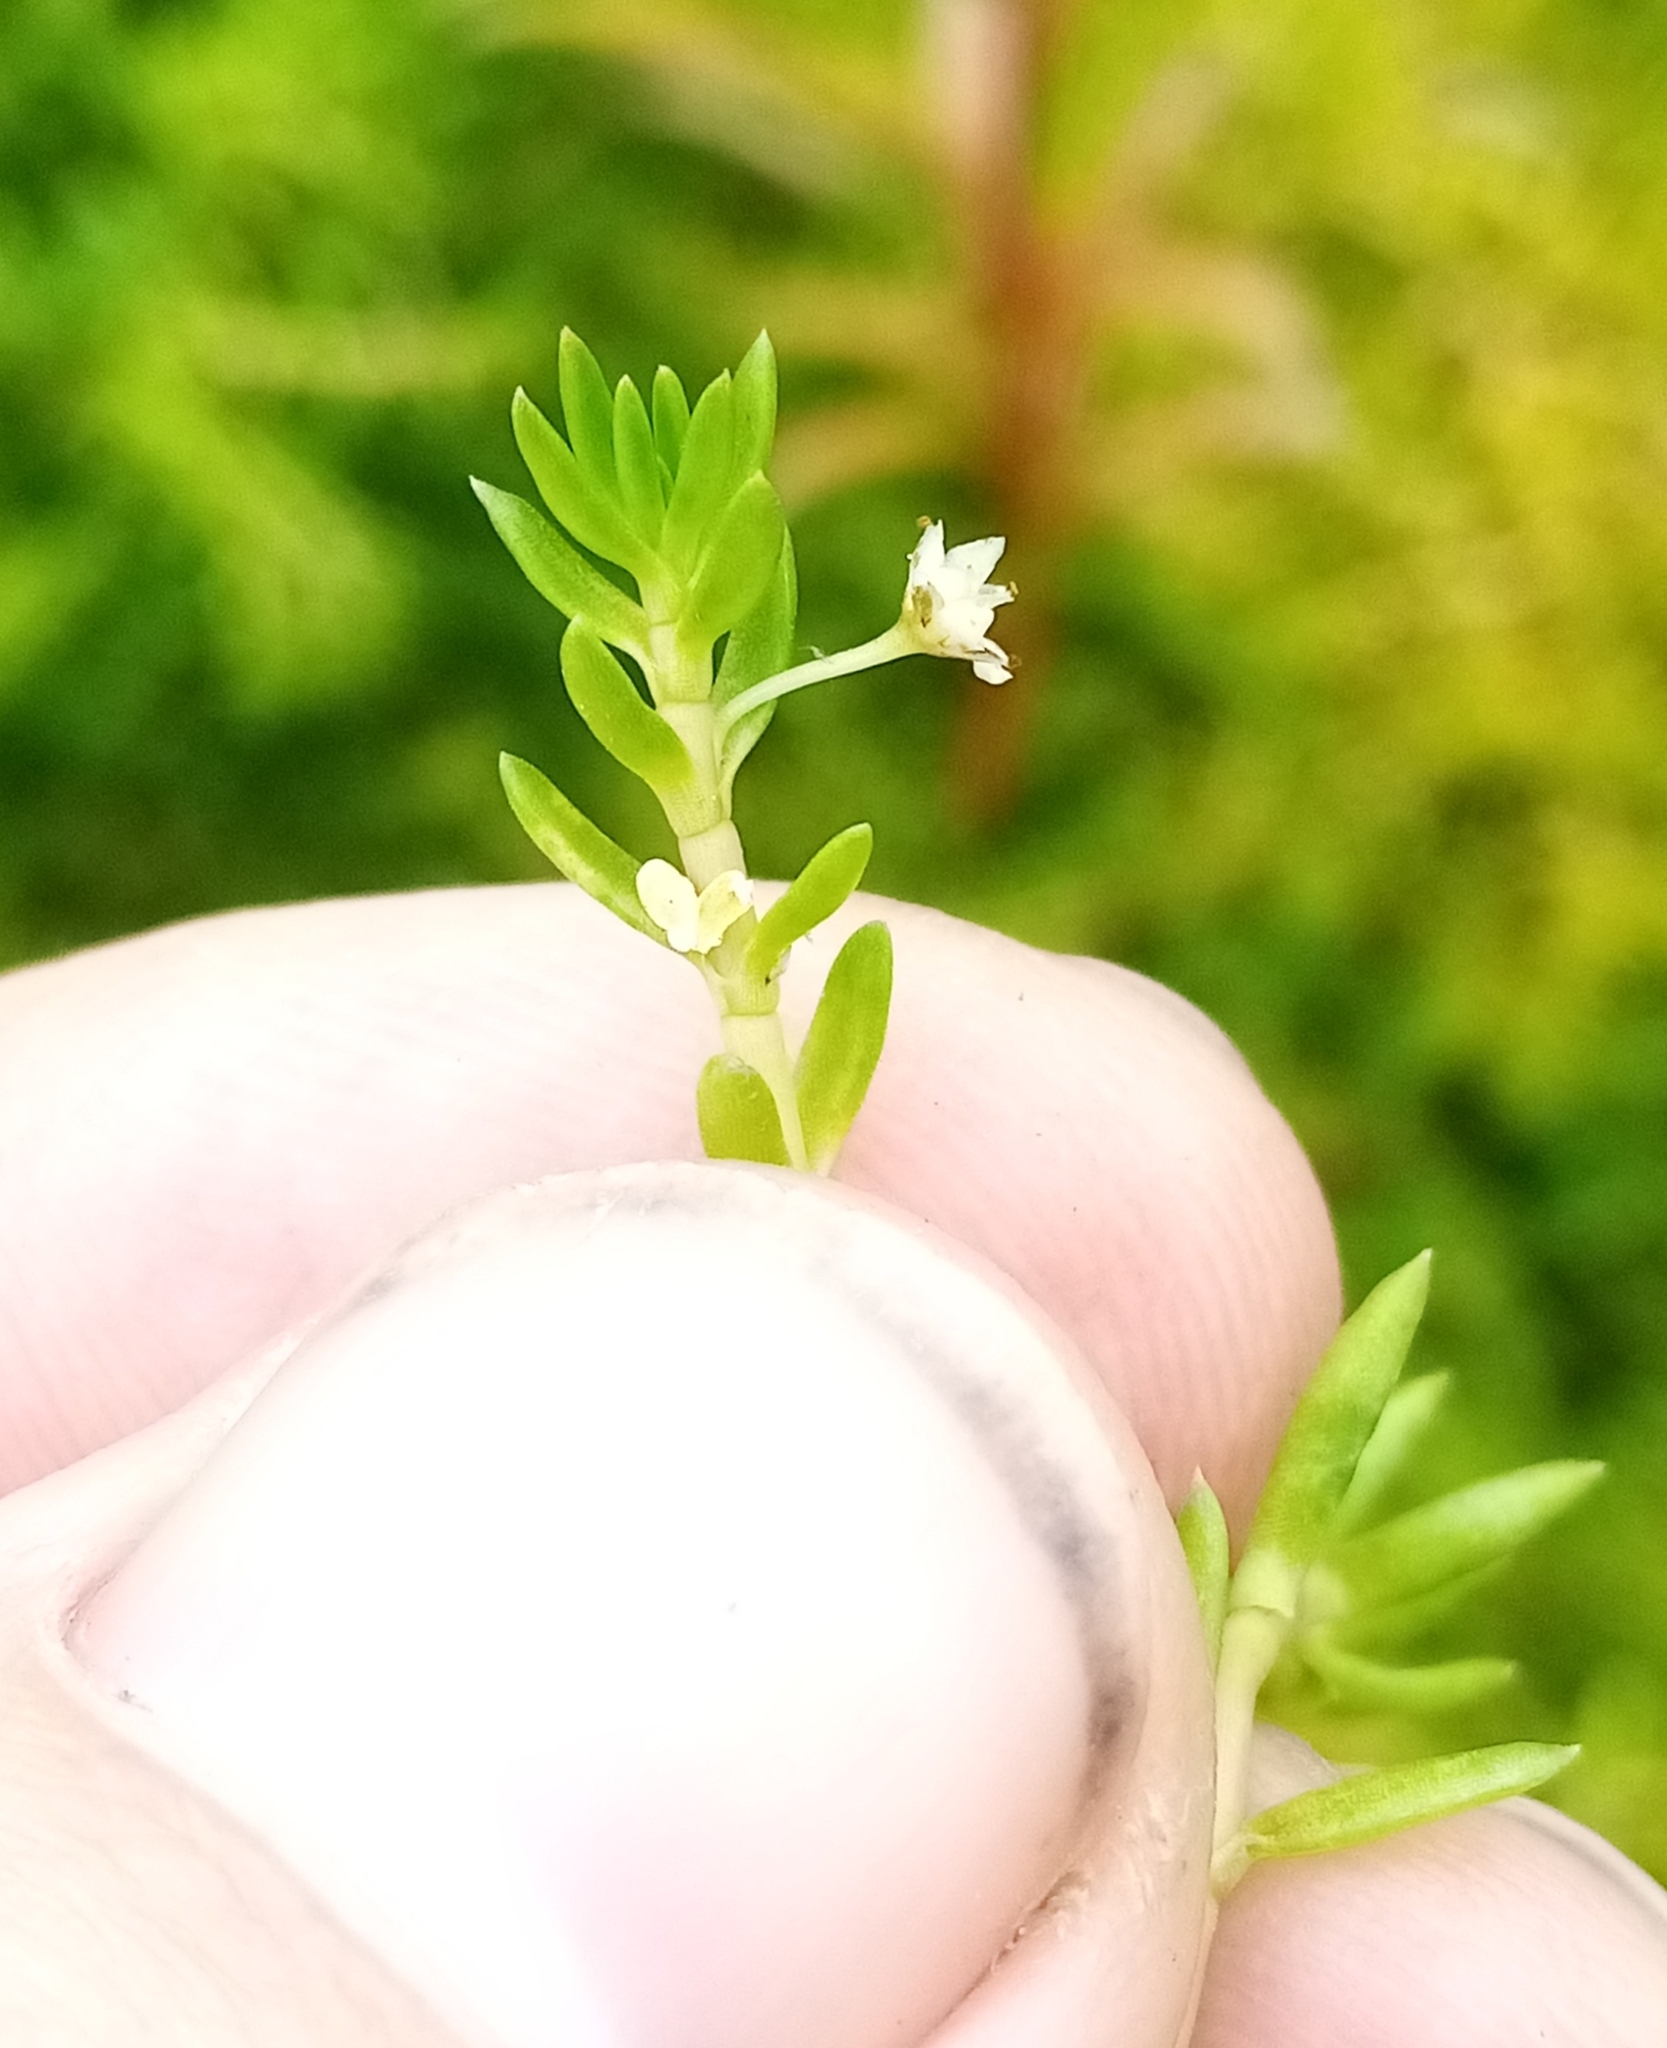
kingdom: Plantae
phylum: Tracheophyta
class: Magnoliopsida
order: Saxifragales
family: Crassulaceae
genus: Crassula
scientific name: Crassula helmsii
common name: New zealand pigmyweed
